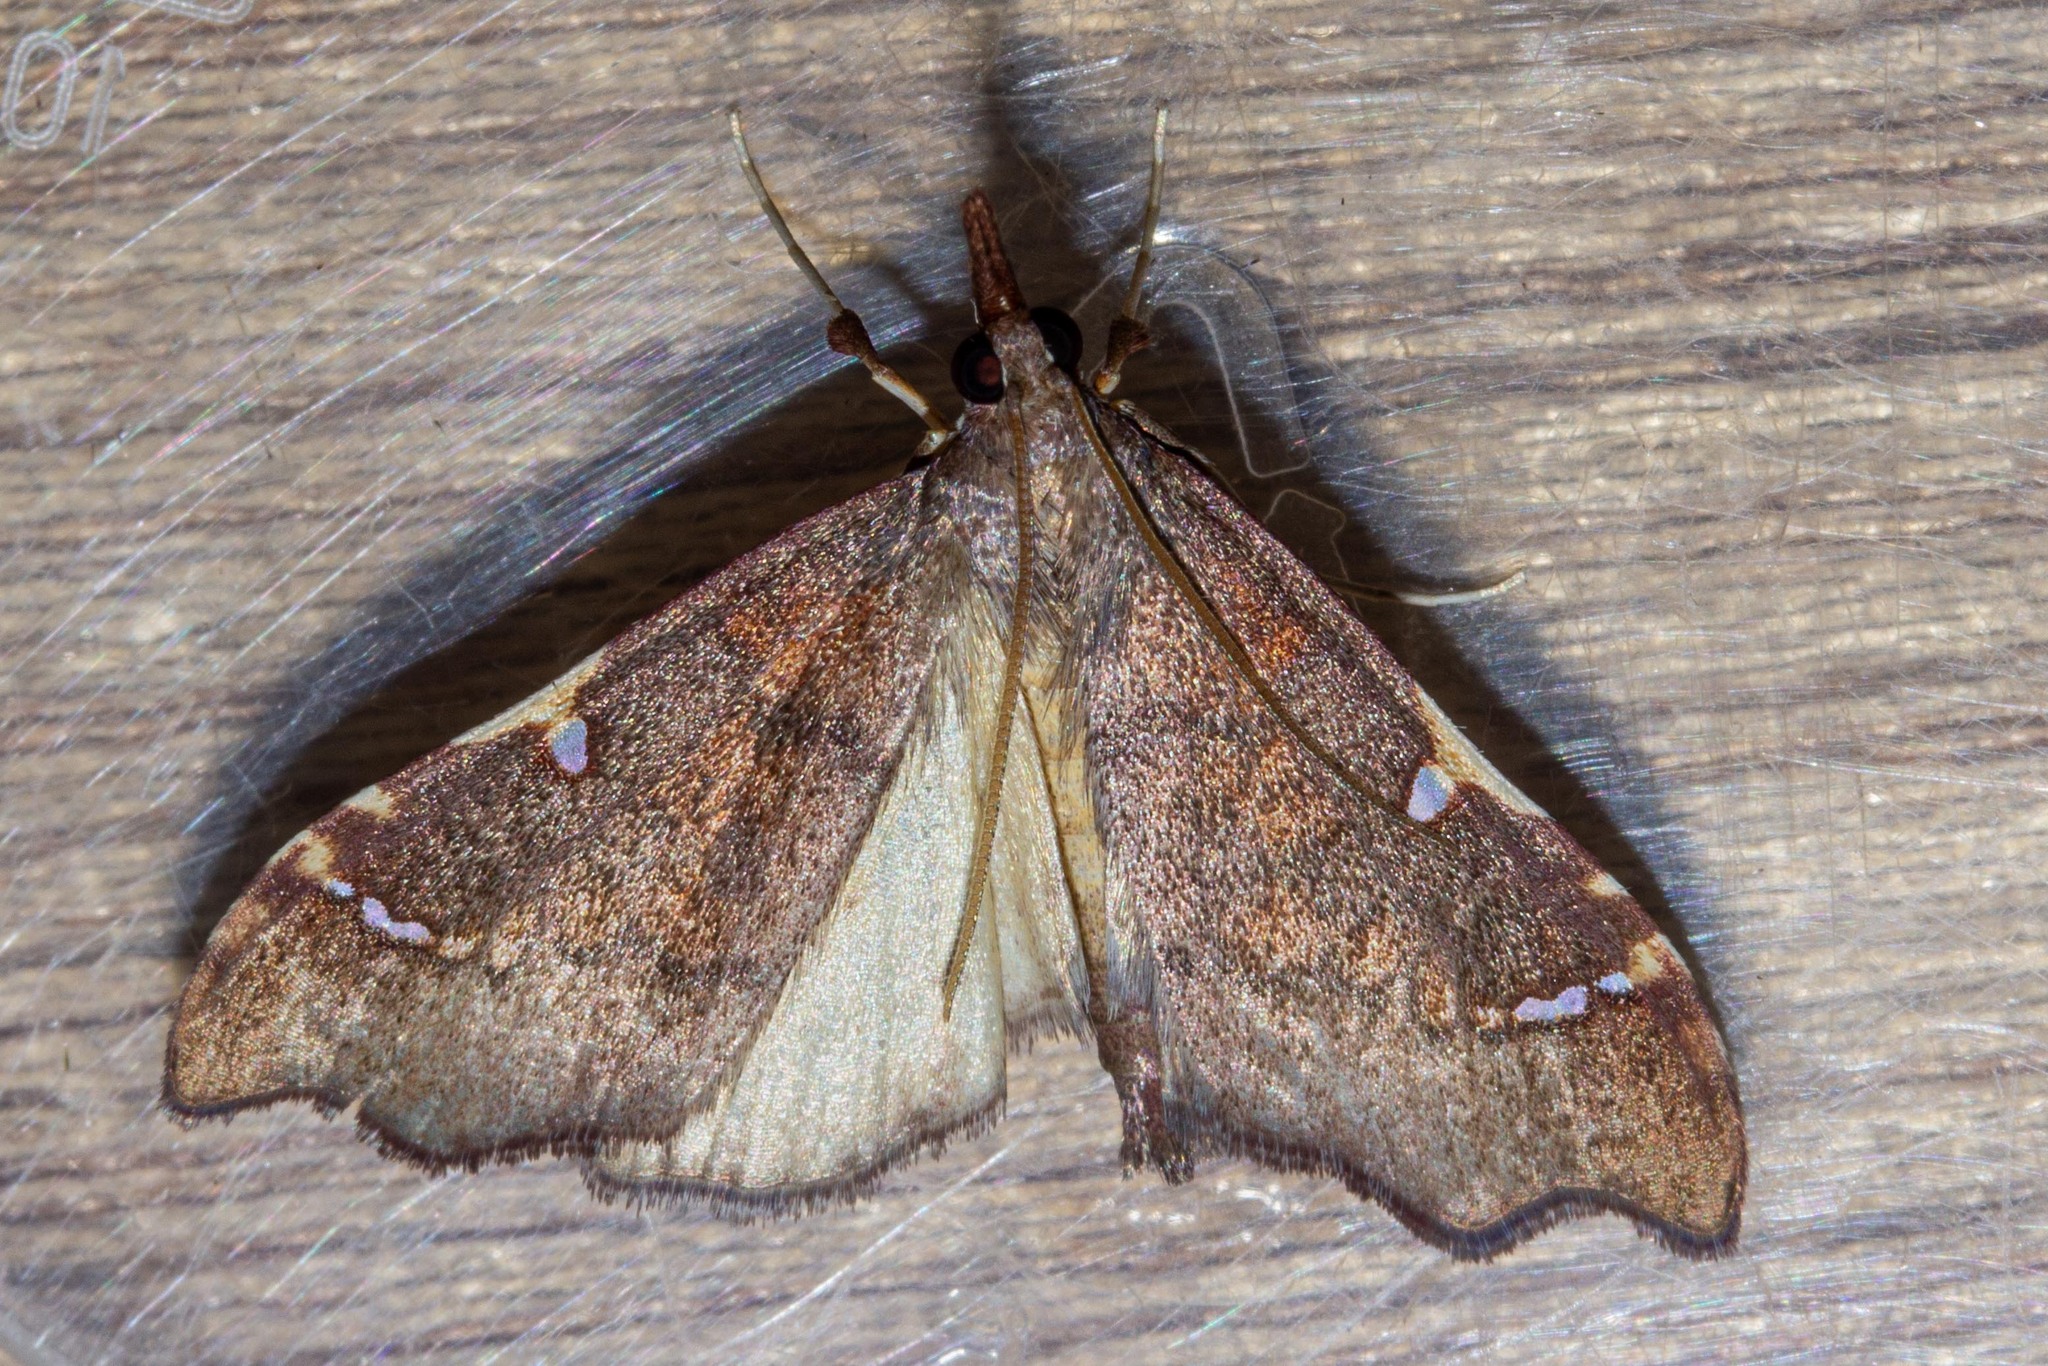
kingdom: Animalia
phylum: Arthropoda
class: Insecta
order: Lepidoptera
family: Crambidae
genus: Deana
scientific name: Deana hybreasalis
